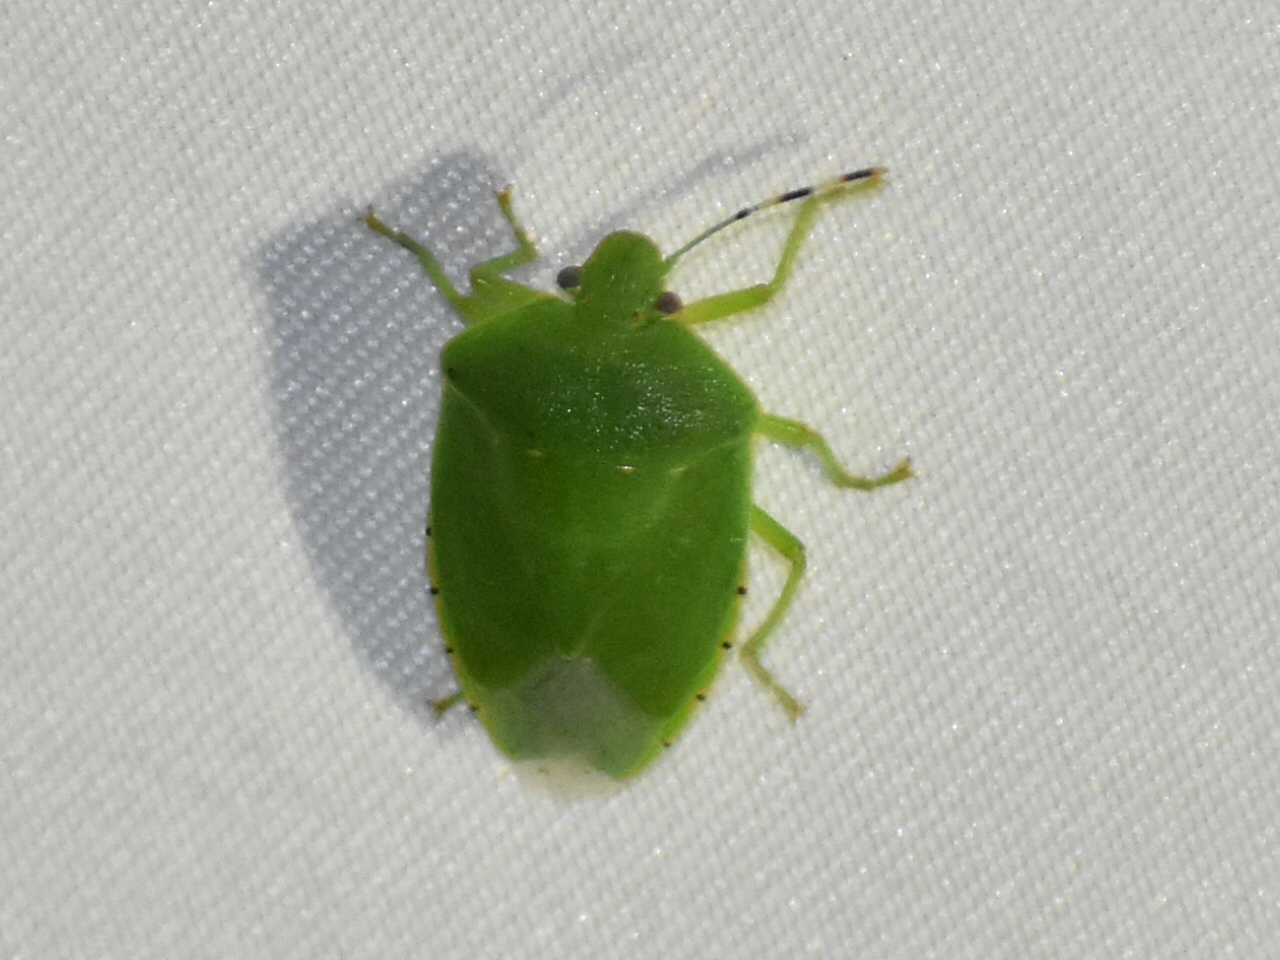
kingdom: Animalia
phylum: Arthropoda
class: Insecta
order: Hemiptera
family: Pentatomidae
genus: Chinavia
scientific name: Chinavia hilaris
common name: Green stink bug
